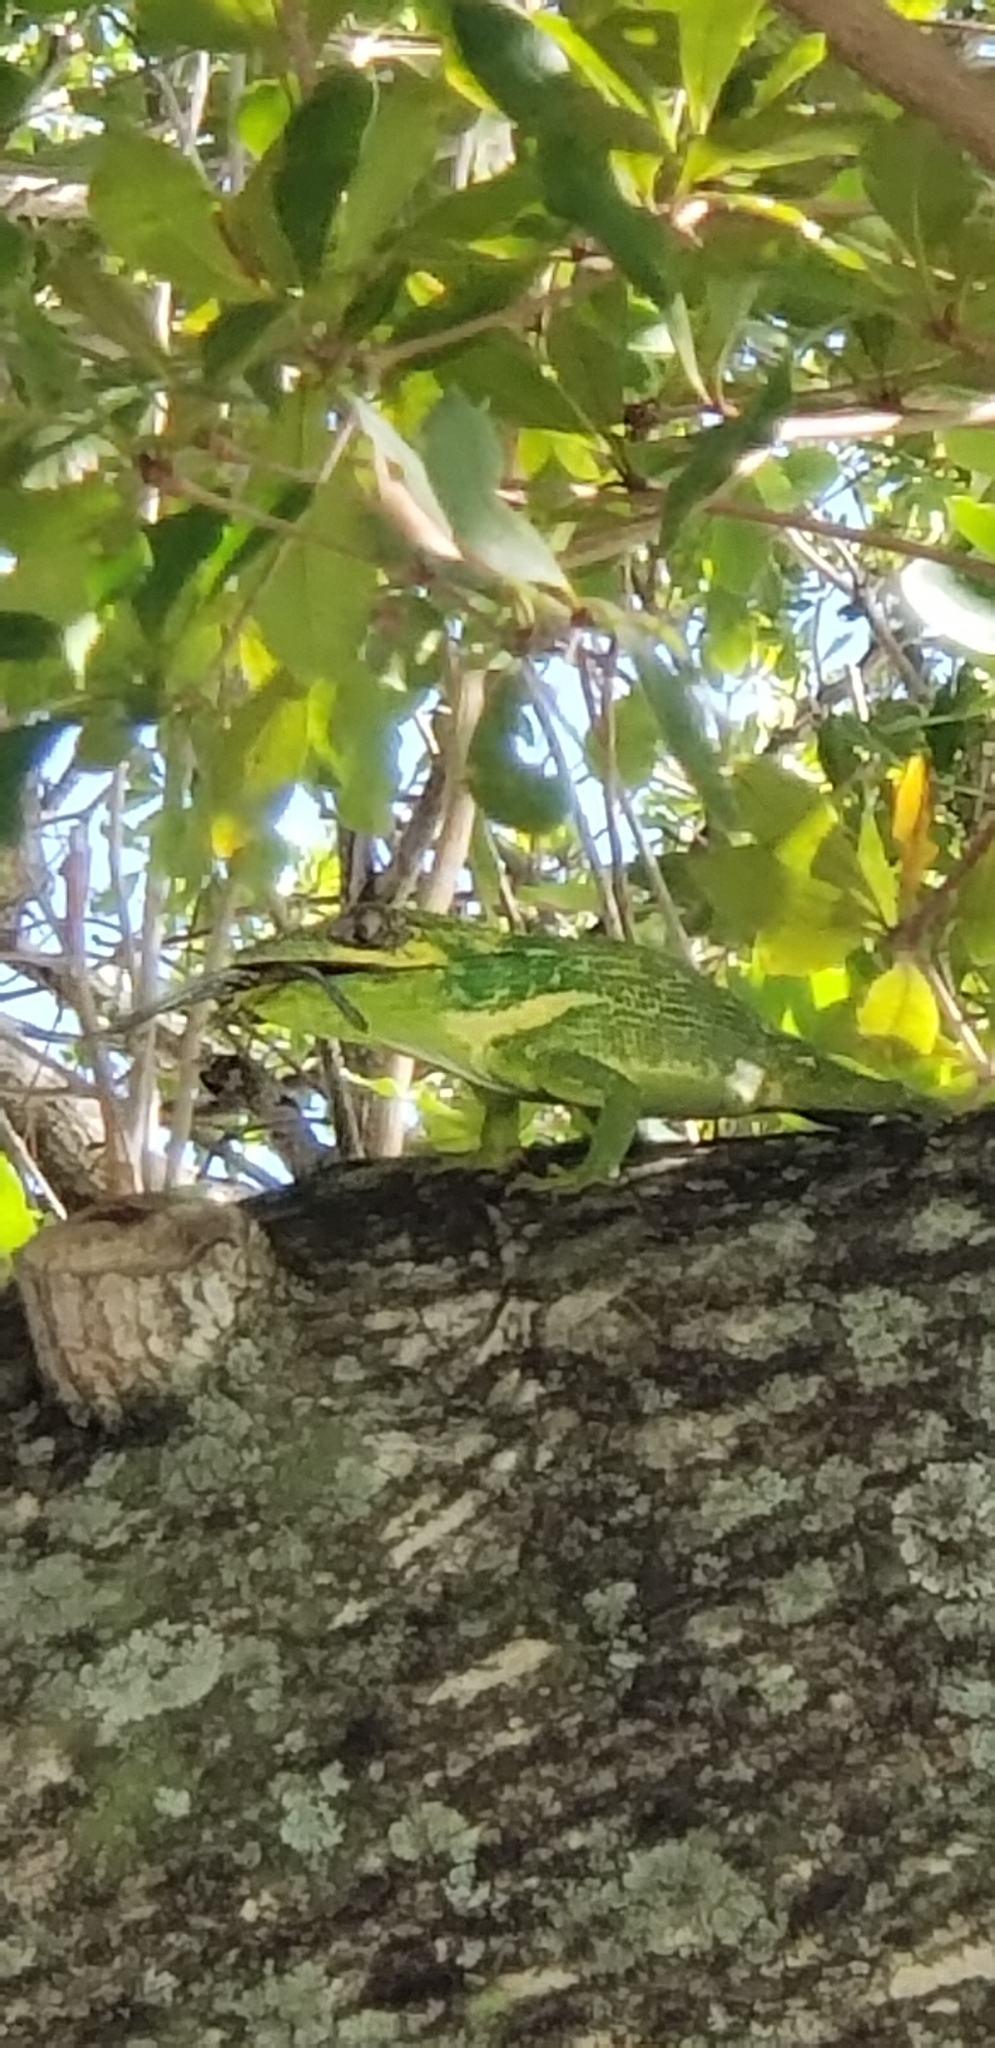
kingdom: Animalia
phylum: Chordata
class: Squamata
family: Dactyloidae
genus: Anolis
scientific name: Anolis equestris
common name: Knight anole
